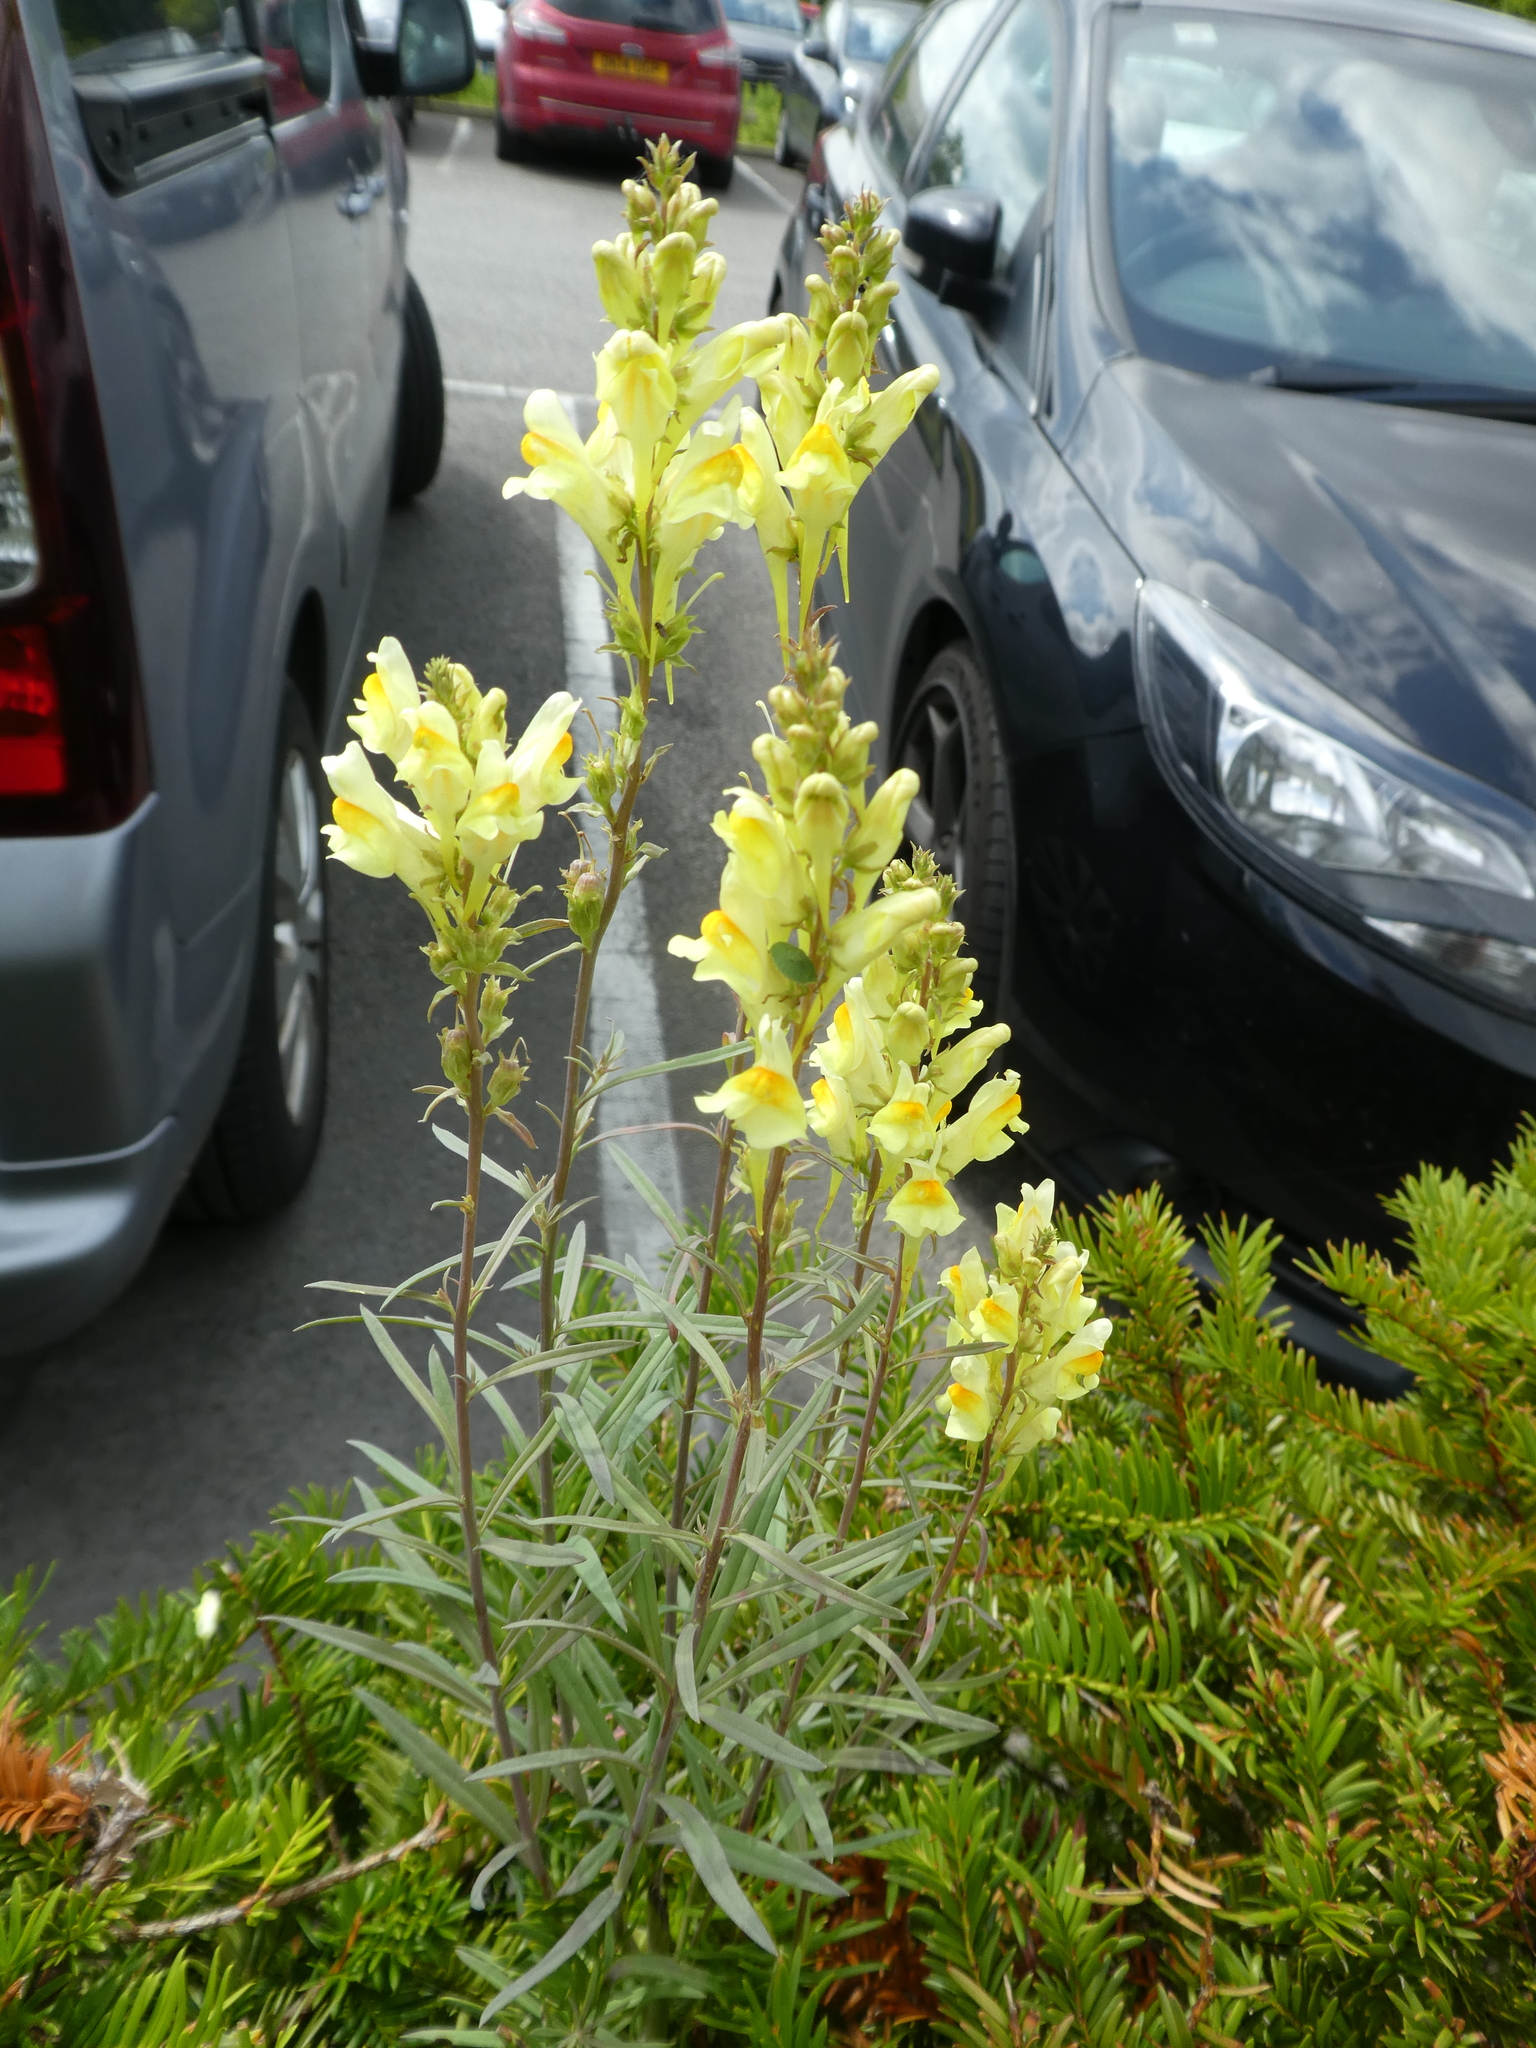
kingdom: Plantae
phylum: Tracheophyta
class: Magnoliopsida
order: Lamiales
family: Plantaginaceae
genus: Linaria
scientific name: Linaria vulgaris
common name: Butter and eggs
